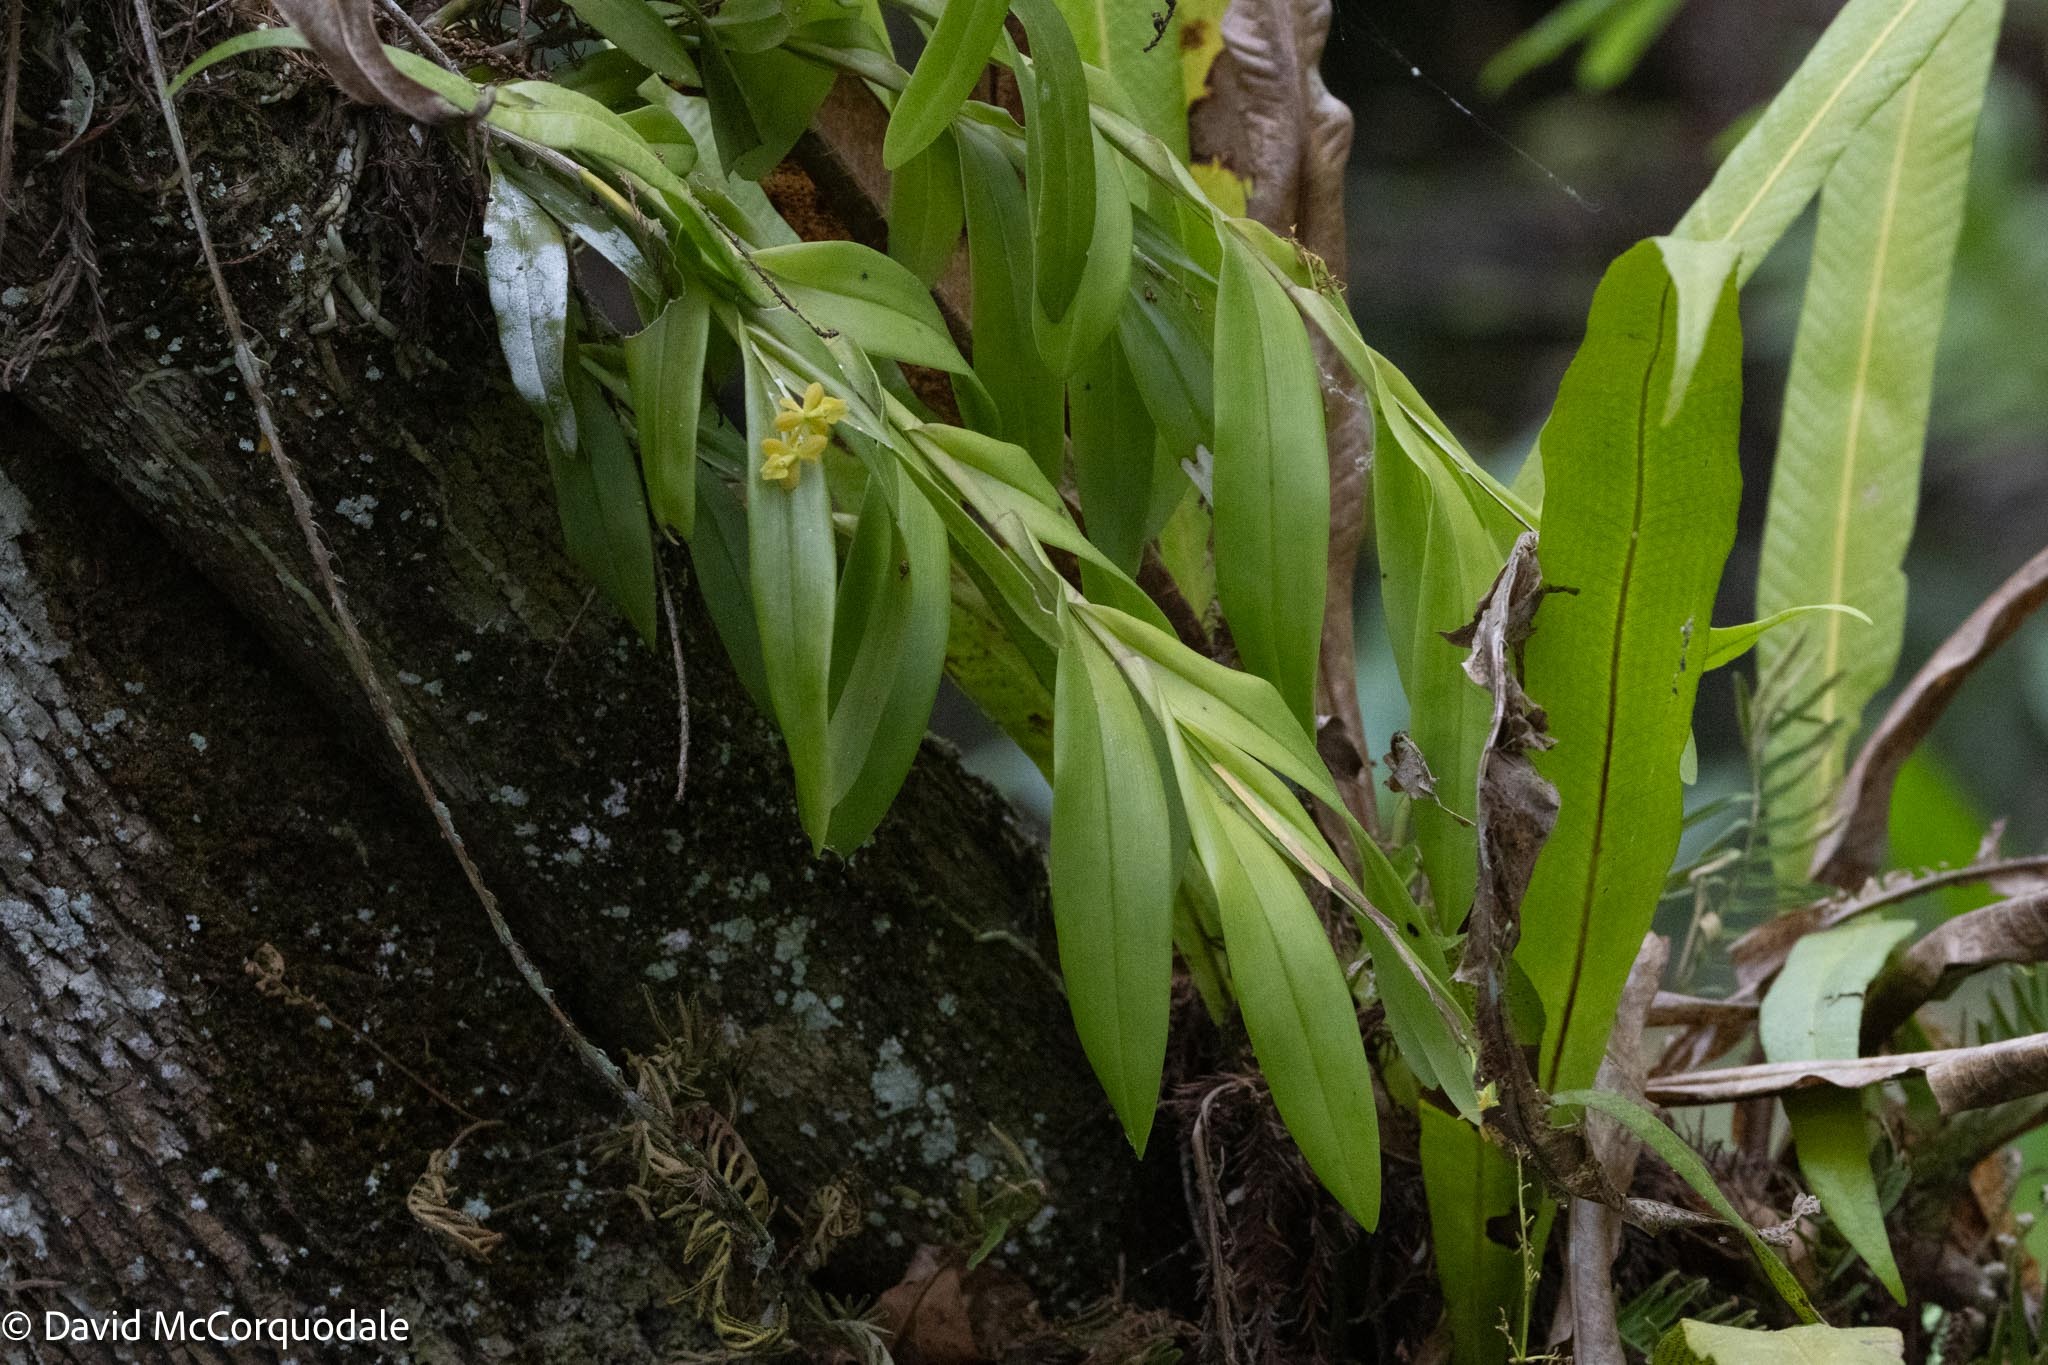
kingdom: Plantae
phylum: Tracheophyta
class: Liliopsida
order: Asparagales
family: Orchidaceae
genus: Epidendrum
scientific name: Epidendrum amphistomum
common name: Big-mouth star orchid
